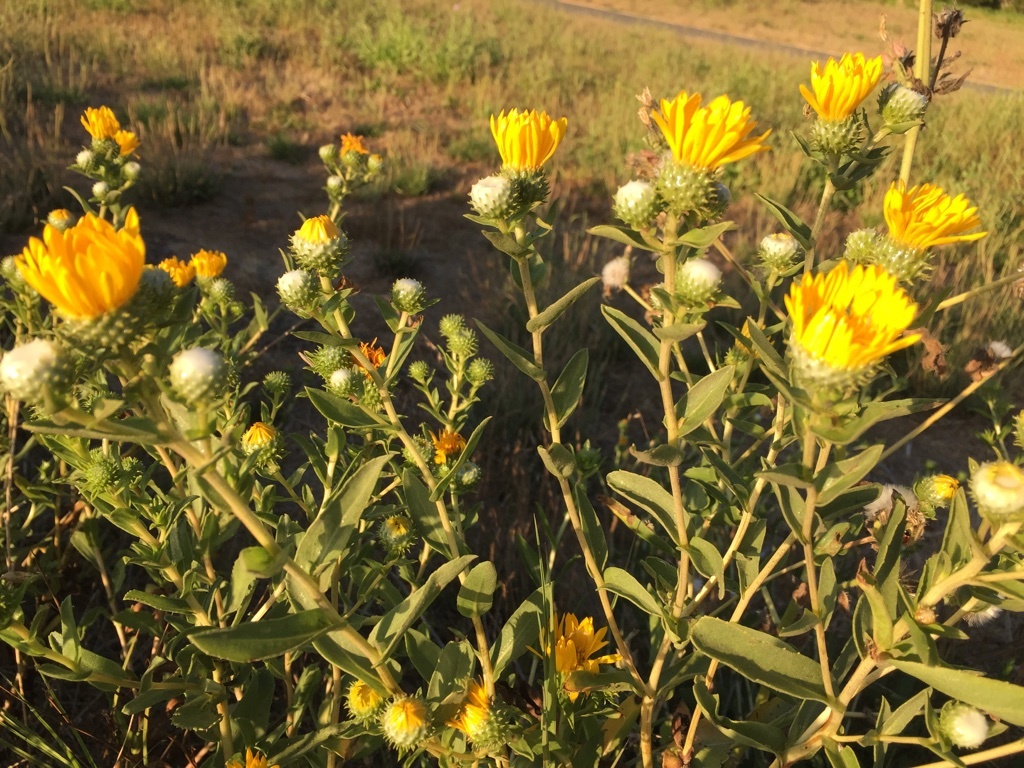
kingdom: Plantae
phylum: Tracheophyta
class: Magnoliopsida
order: Asterales
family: Asteraceae
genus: Grindelia
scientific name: Grindelia hirsutula
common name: Hairy gumweed
